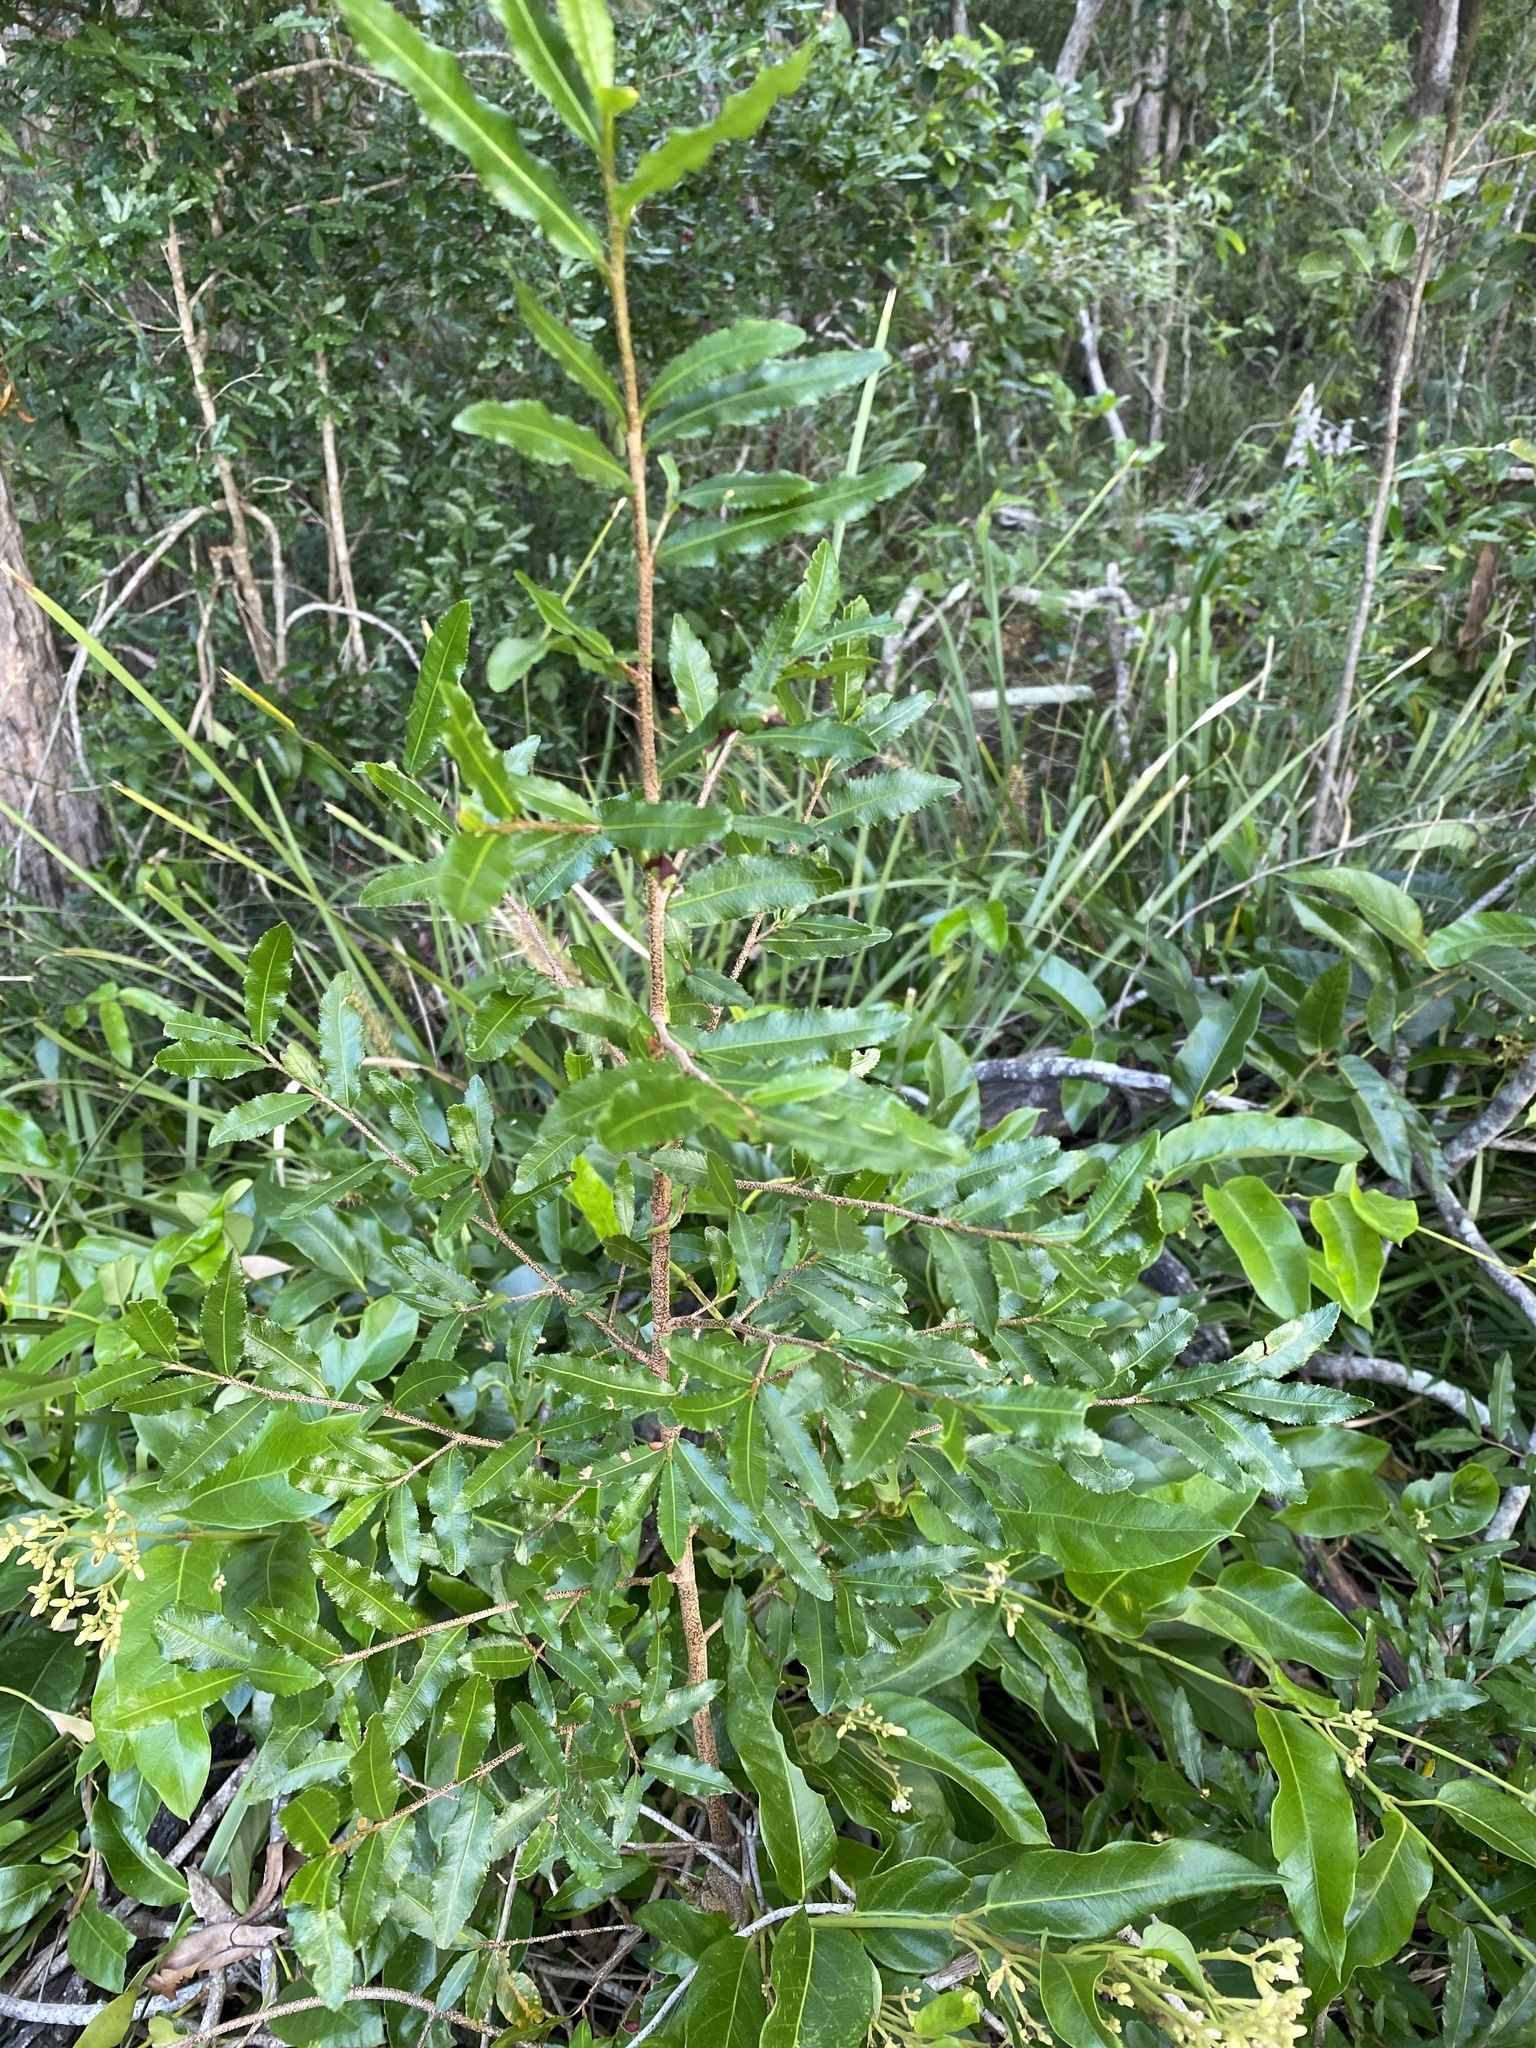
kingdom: Plantae
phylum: Tracheophyta
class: Magnoliopsida
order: Malpighiales
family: Ochnaceae
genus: Ochna
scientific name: Ochna serrulata
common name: Mickey mouse plant
